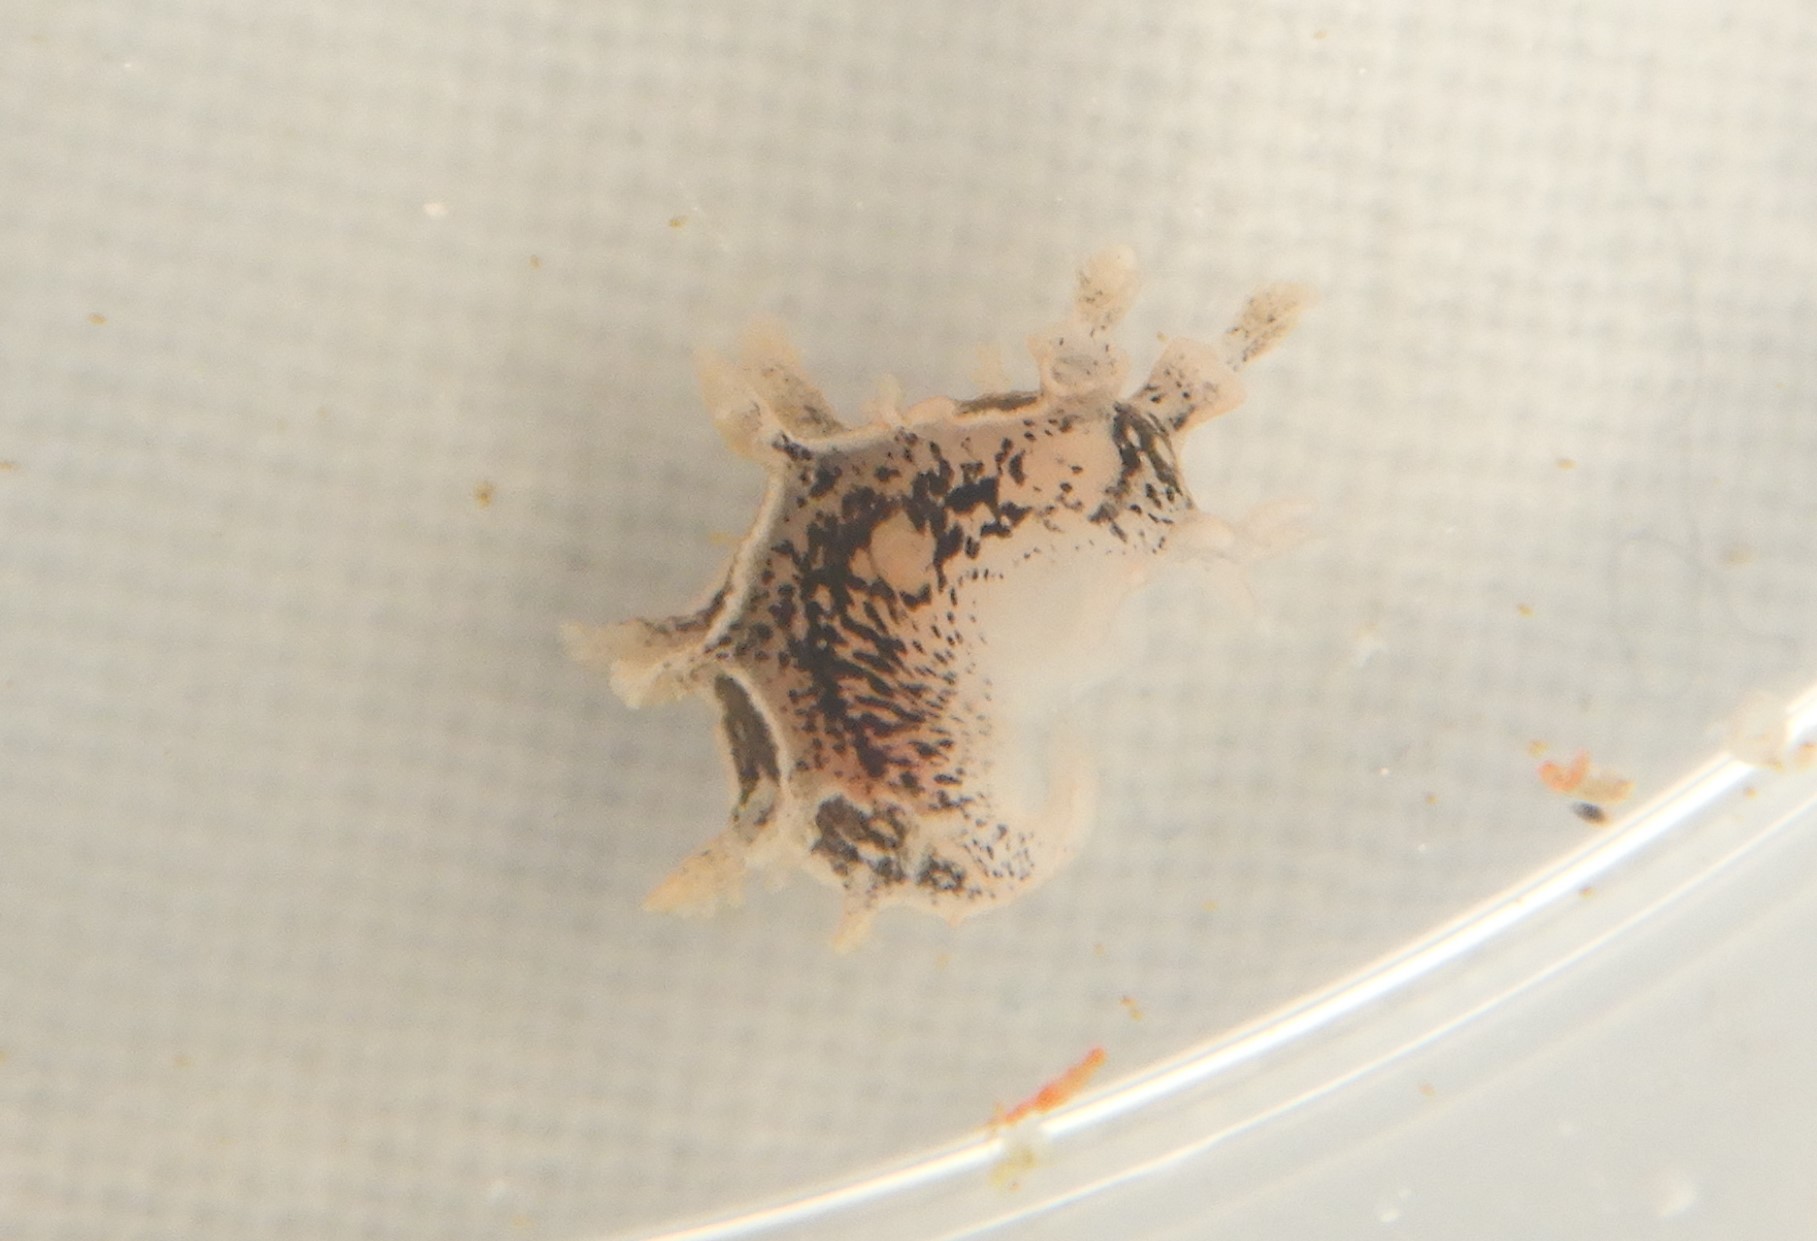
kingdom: Animalia
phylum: Mollusca
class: Gastropoda
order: Nudibranchia
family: Tritoniidae
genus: Duvaucelia
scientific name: Duvaucelia manicata
